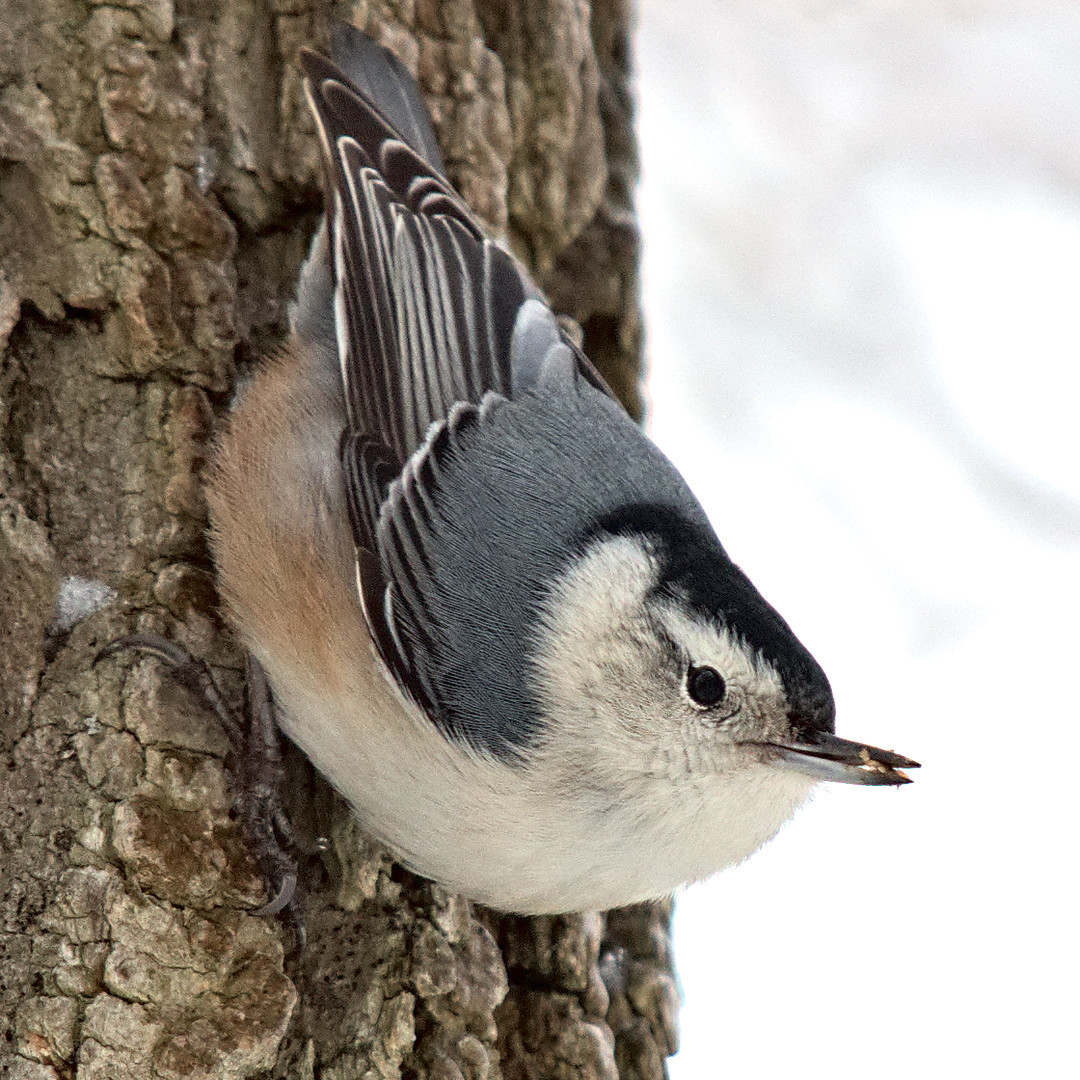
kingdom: Animalia
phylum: Chordata
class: Aves
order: Passeriformes
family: Sittidae
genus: Sitta
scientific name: Sitta carolinensis
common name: White-breasted nuthatch
